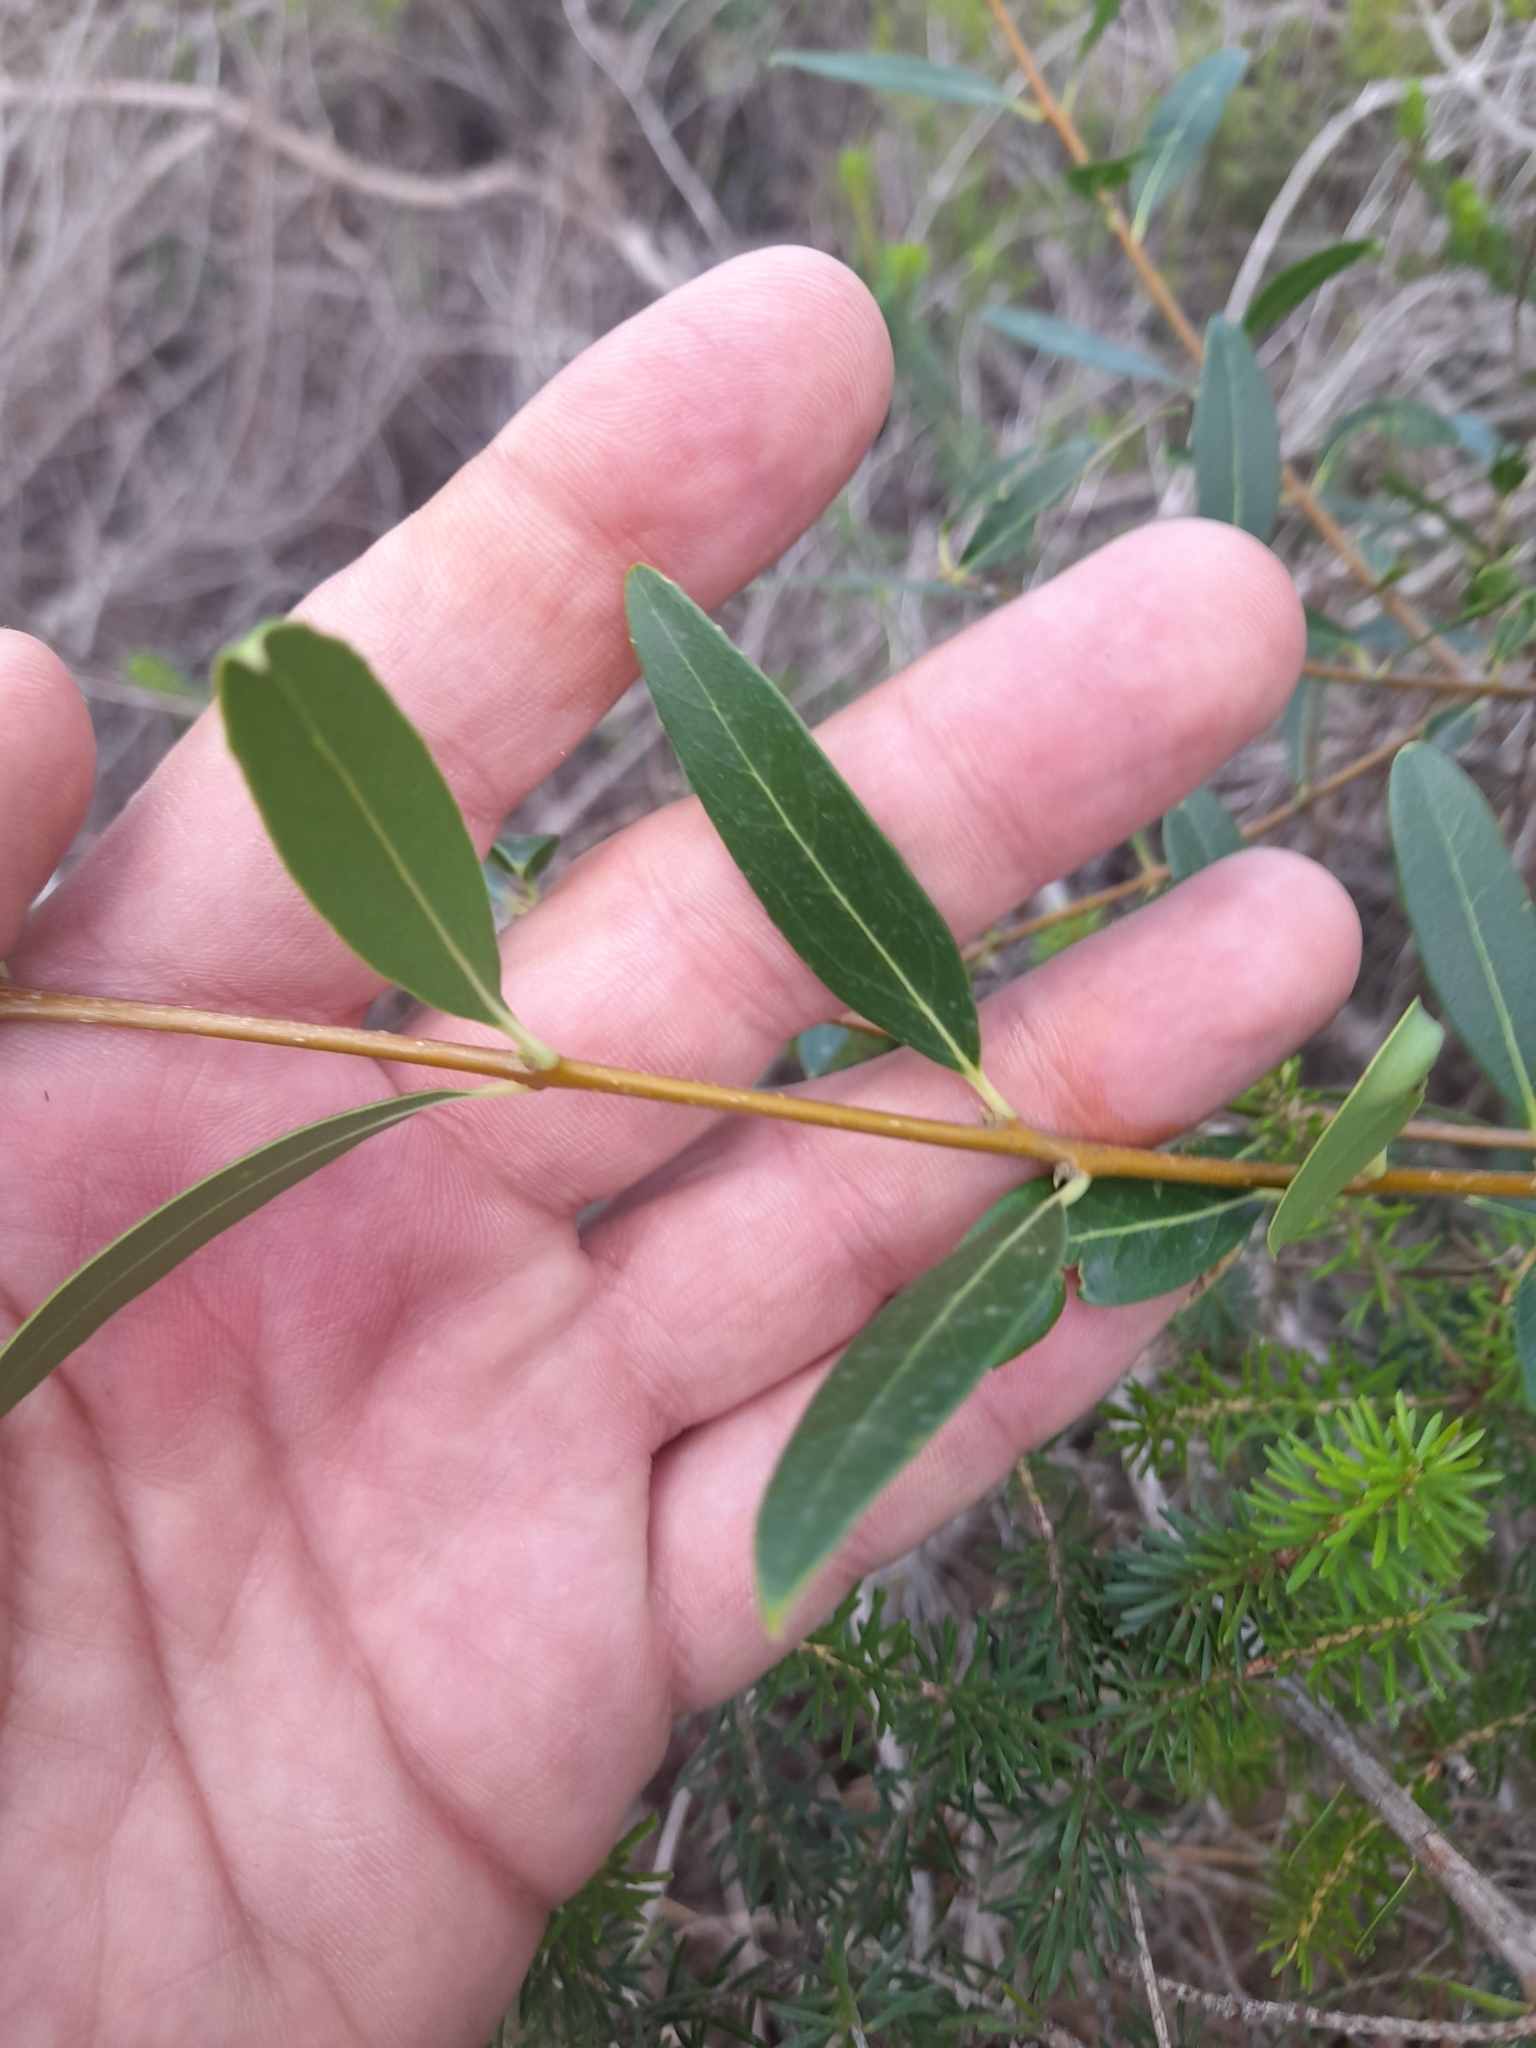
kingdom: Plantae
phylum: Tracheophyta
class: Magnoliopsida
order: Lamiales
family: Oleaceae
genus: Phillyrea
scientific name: Phillyrea latifolia
